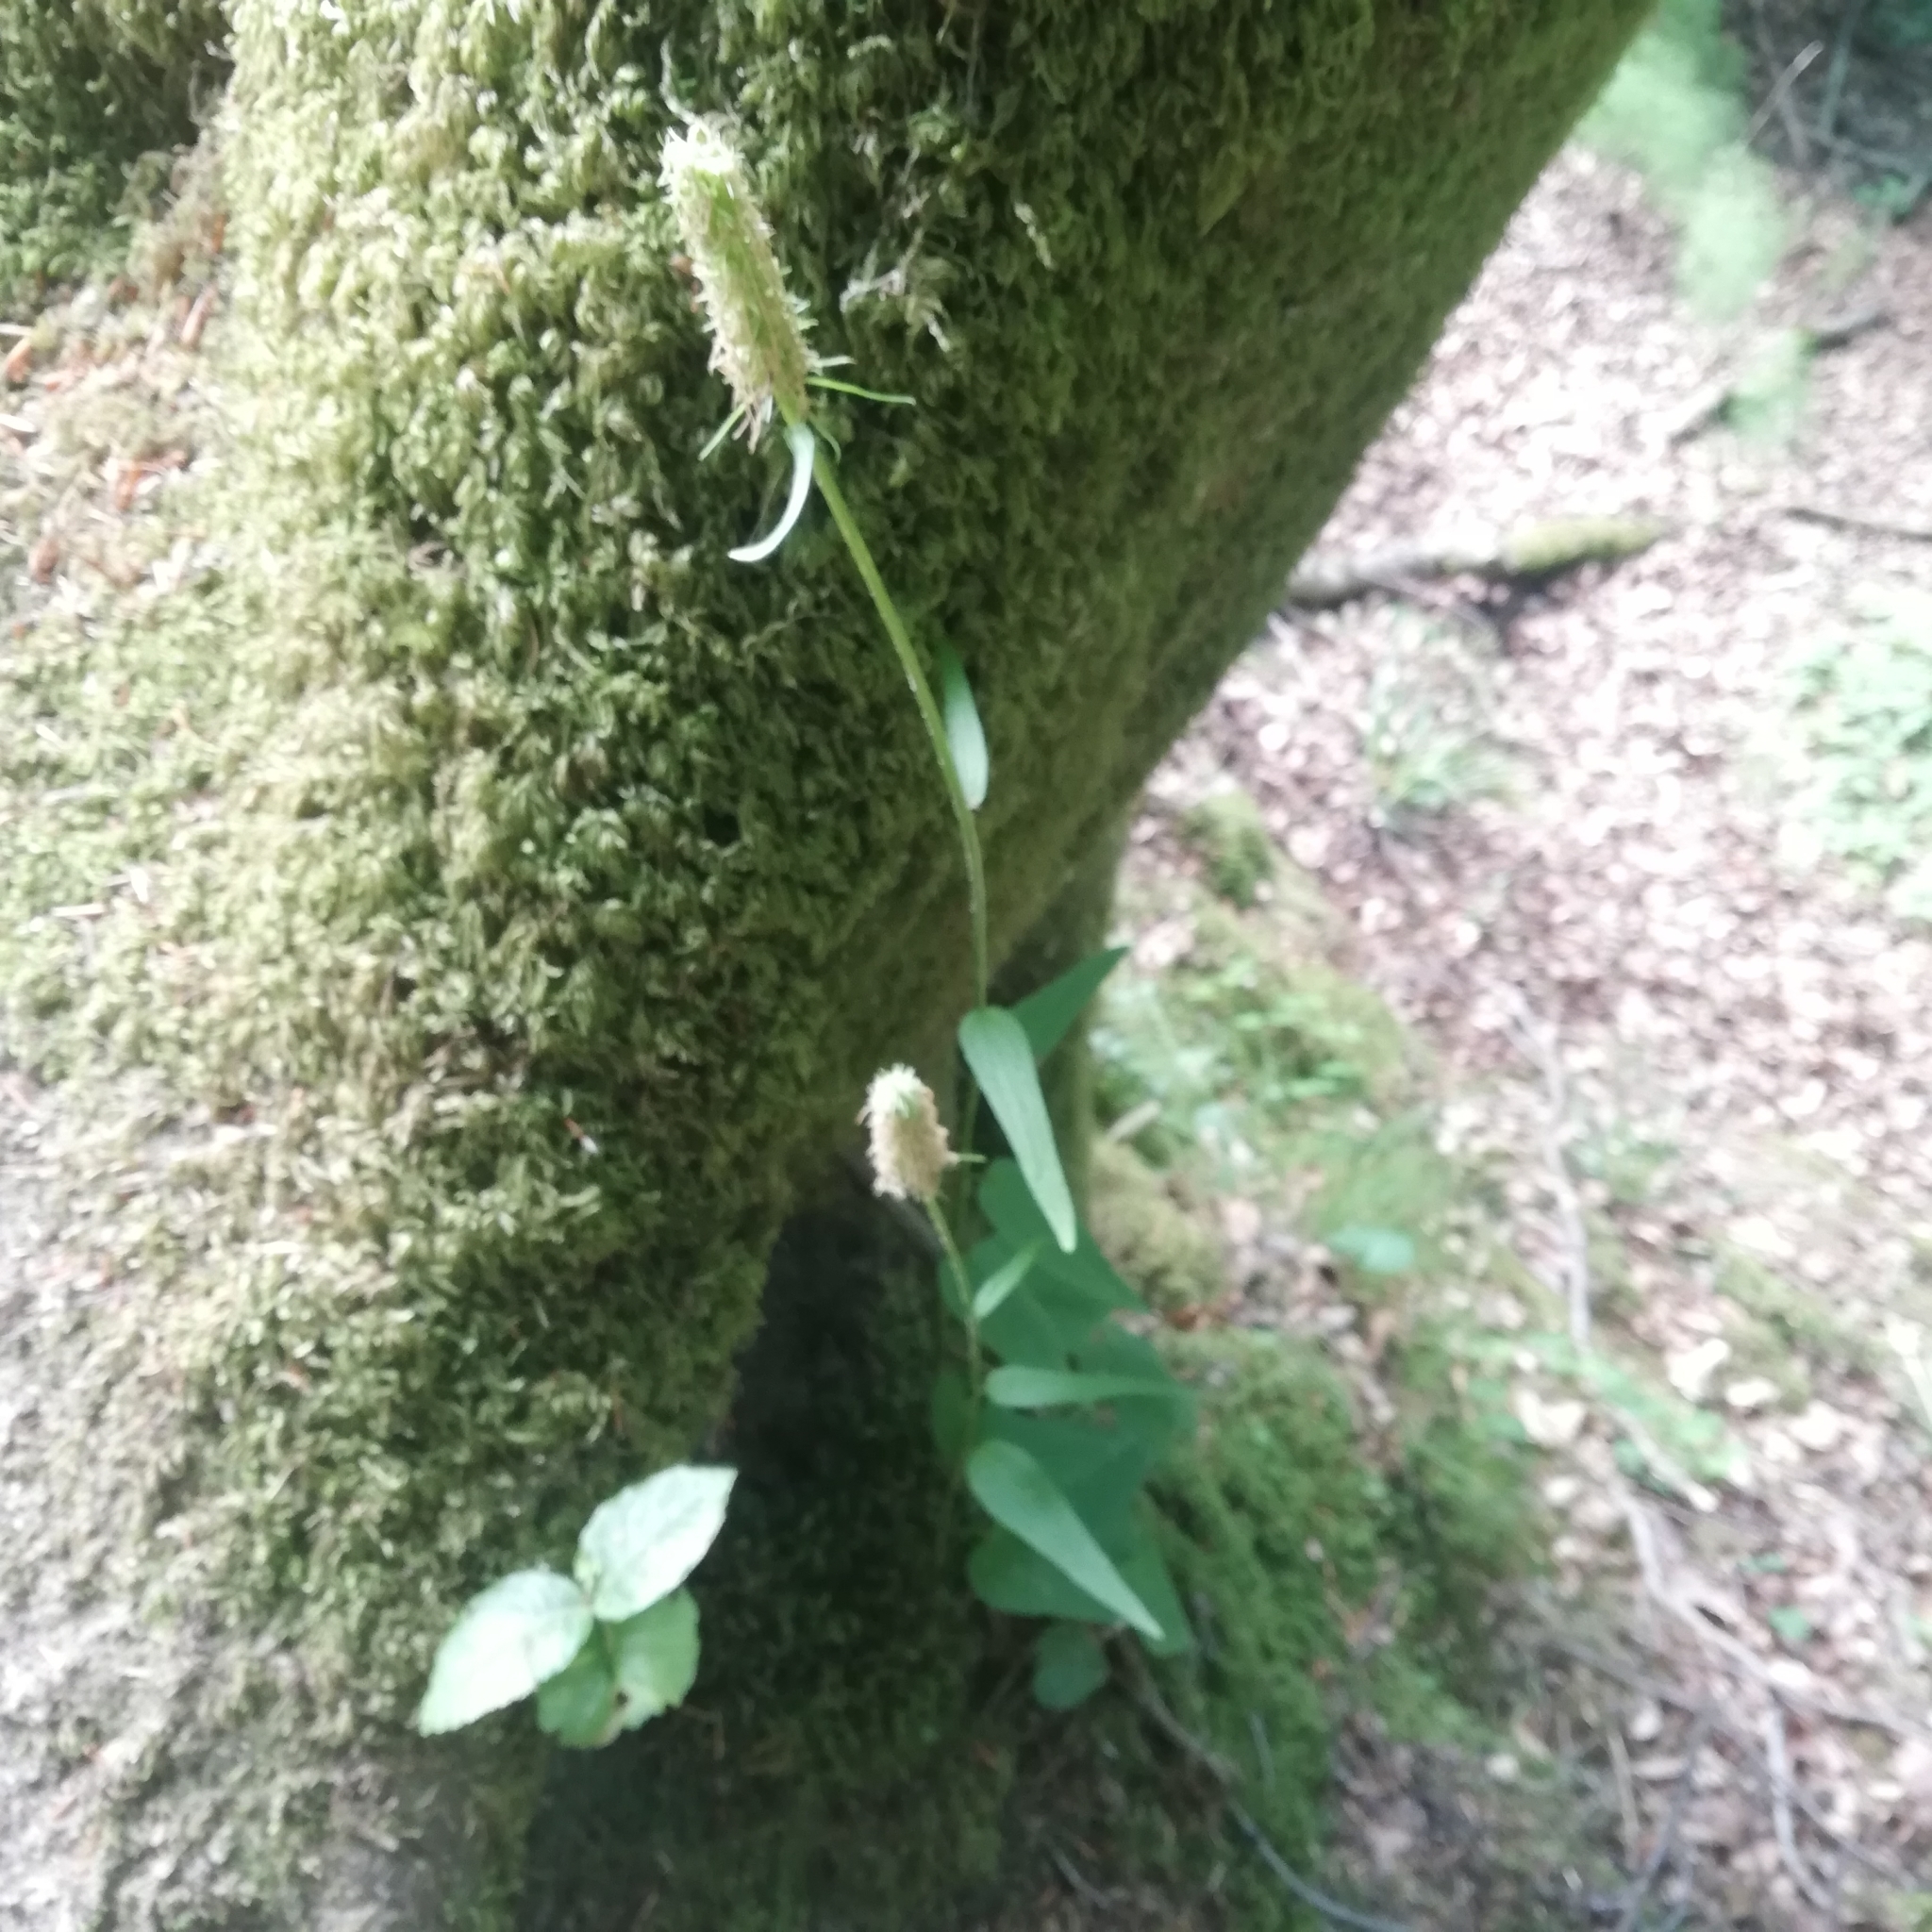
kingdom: Plantae
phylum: Tracheophyta
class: Magnoliopsida
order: Asterales
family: Campanulaceae
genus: Phyteuma
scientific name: Phyteuma spicatum
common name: Spiked rampion
